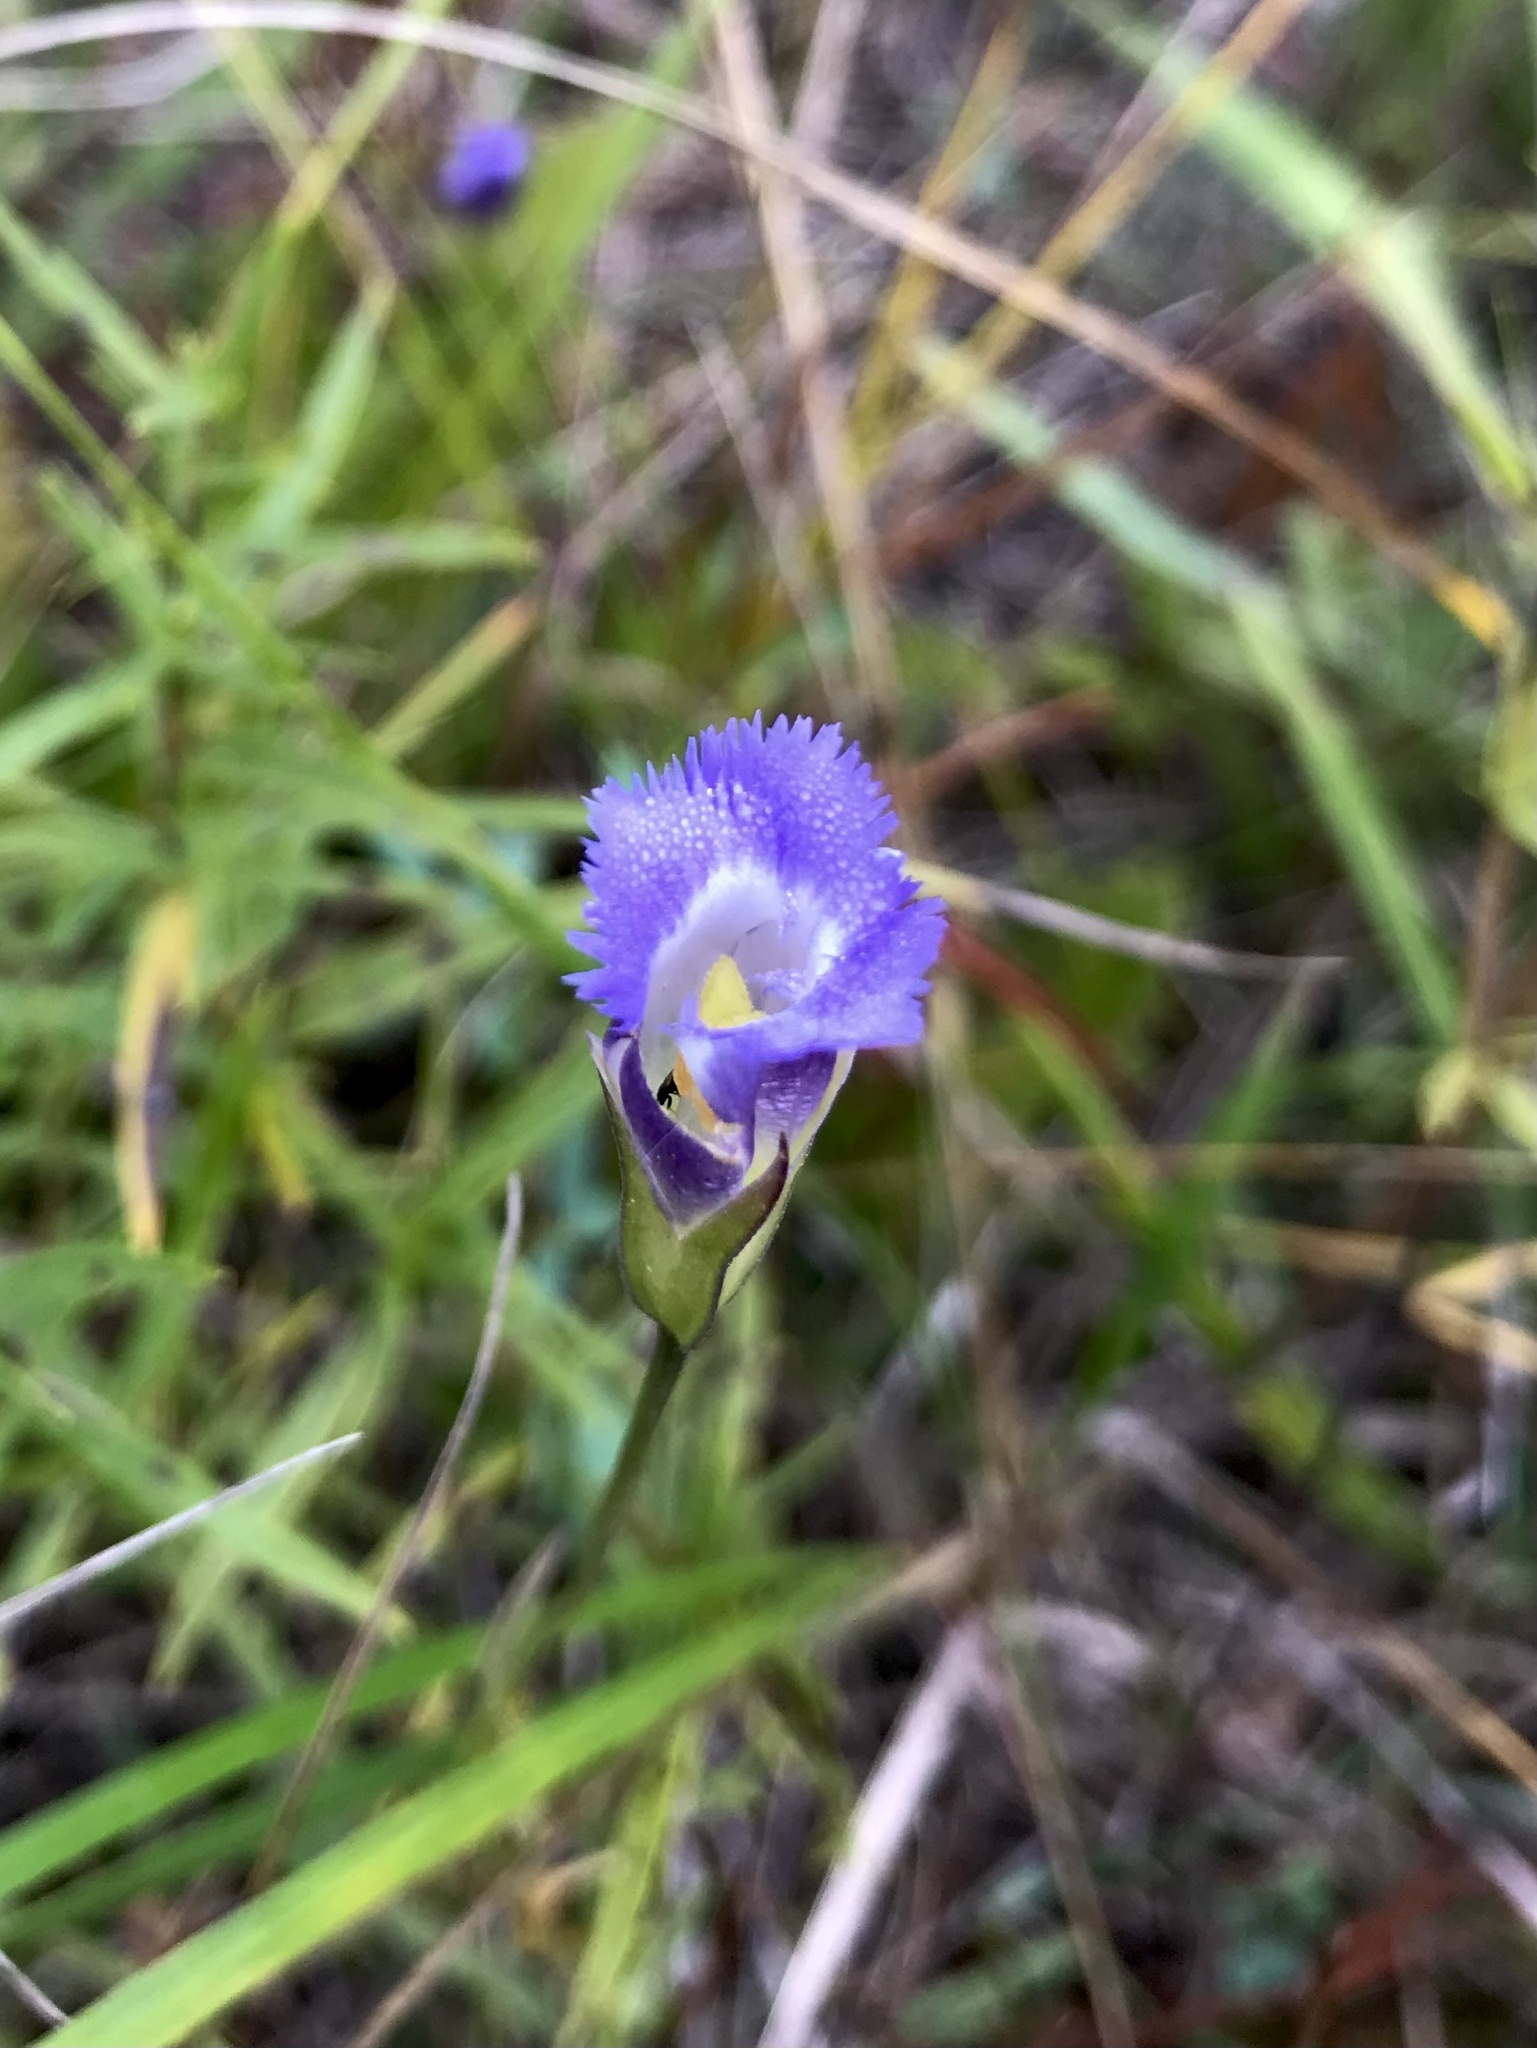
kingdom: Plantae
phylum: Tracheophyta
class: Magnoliopsida
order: Gentianales
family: Gentianaceae
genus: Gentianopsis
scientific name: Gentianopsis virgata
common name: Lesser fringed-gentian
